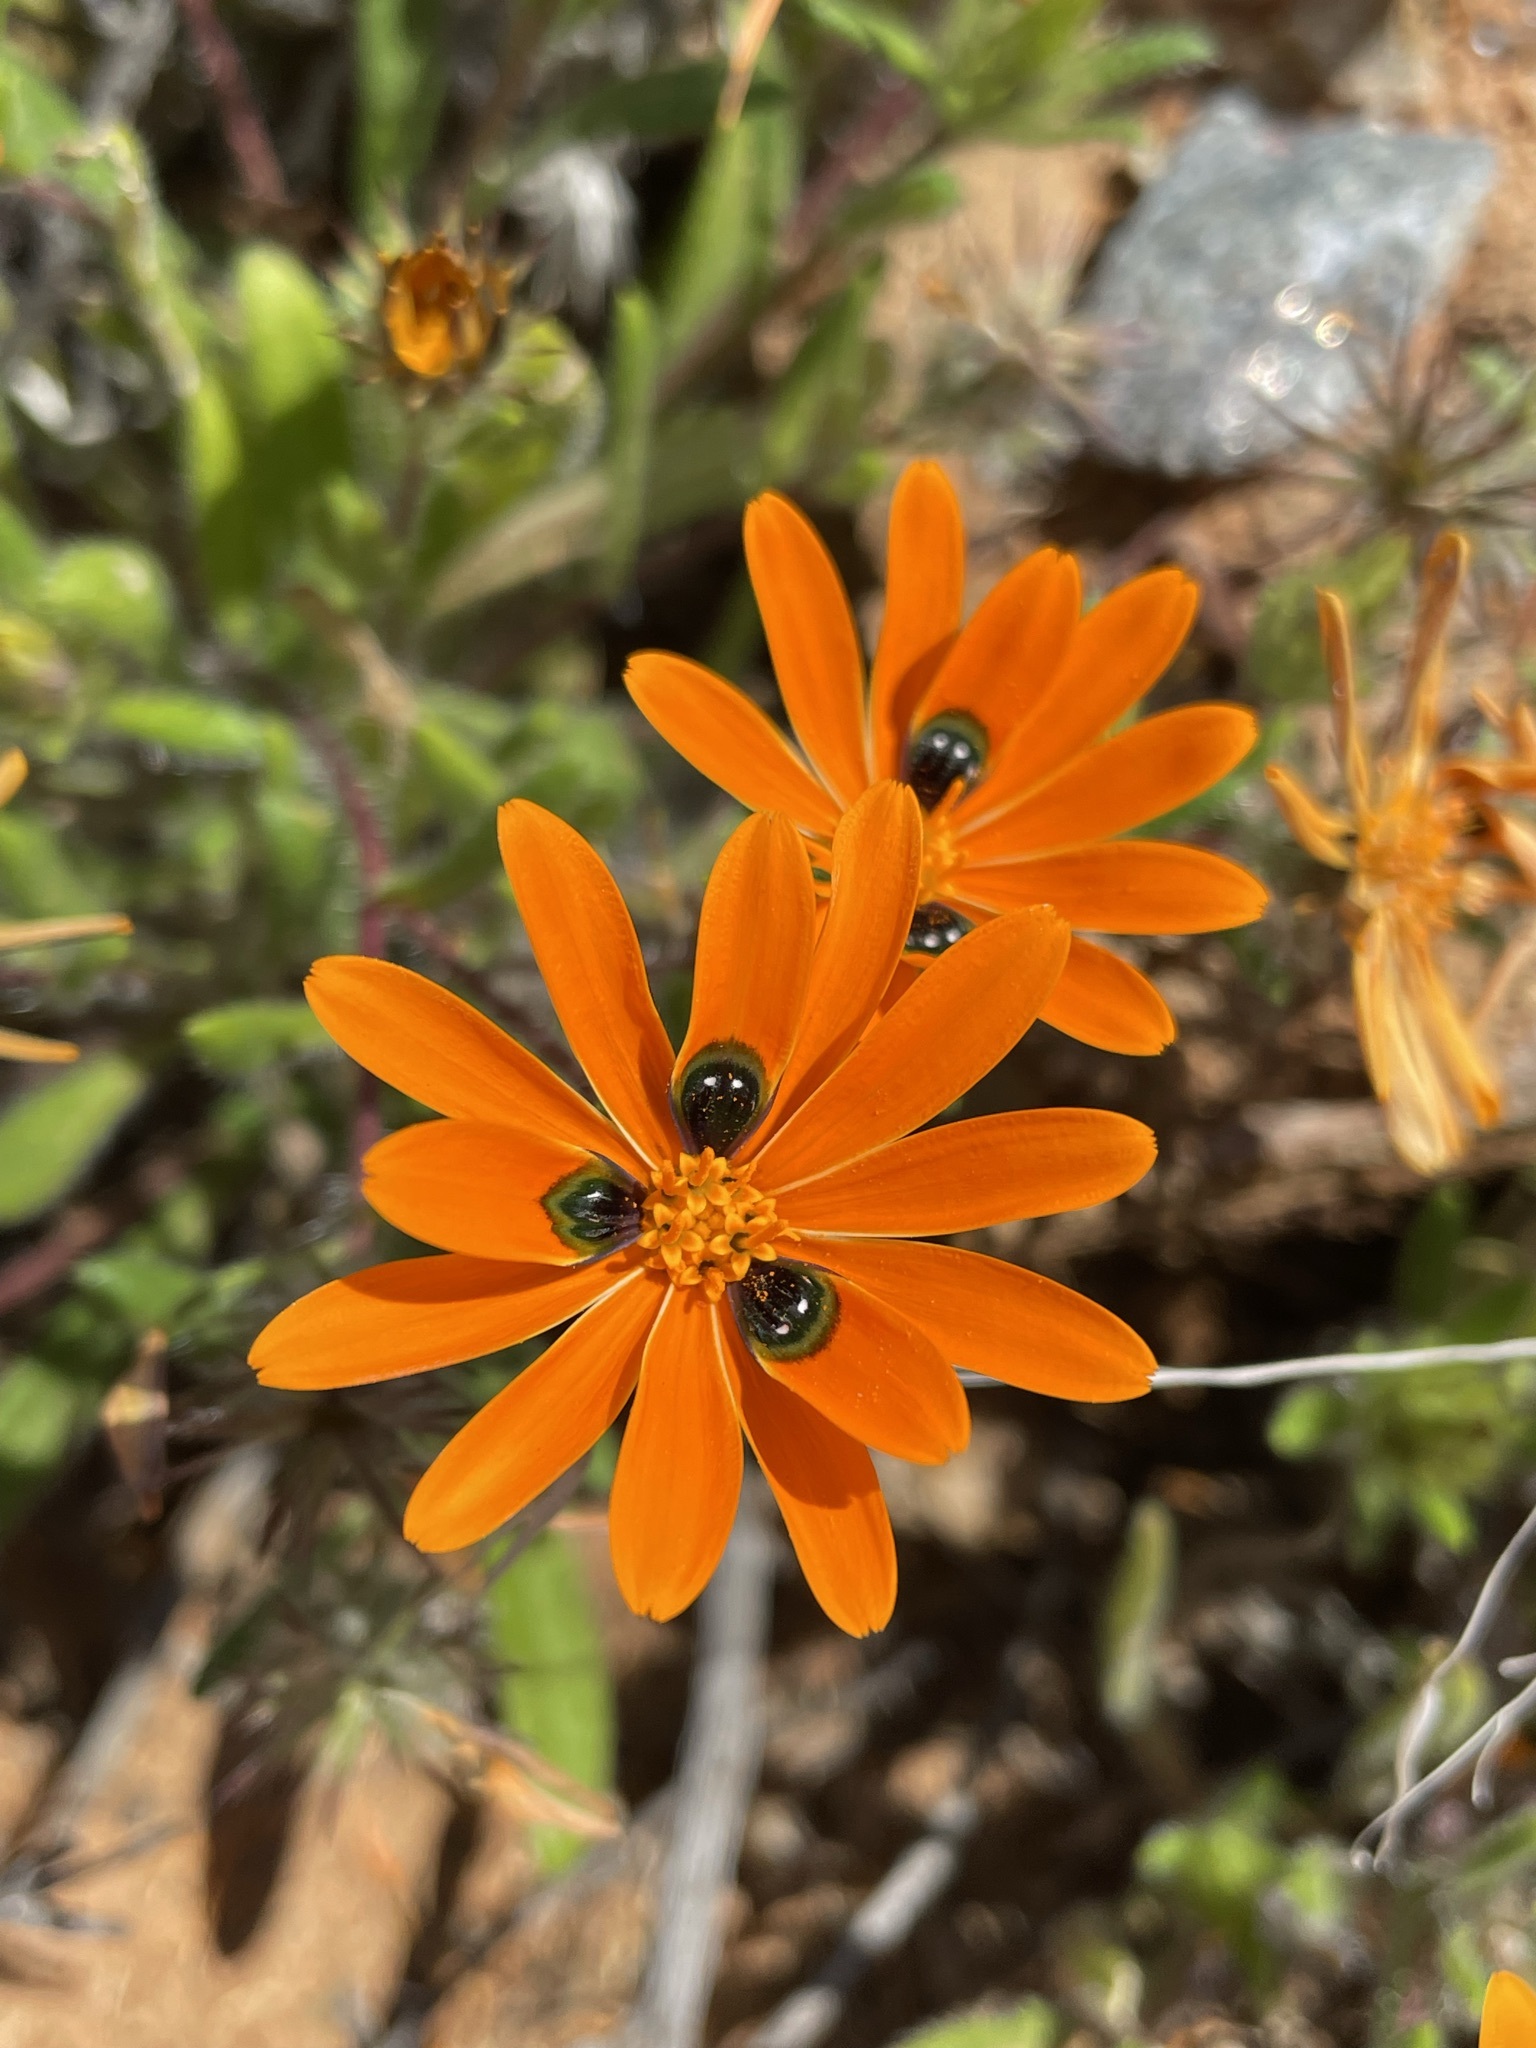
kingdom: Plantae
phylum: Tracheophyta
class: Magnoliopsida
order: Asterales
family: Asteraceae
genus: Gorteria
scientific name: Gorteria diffusa
